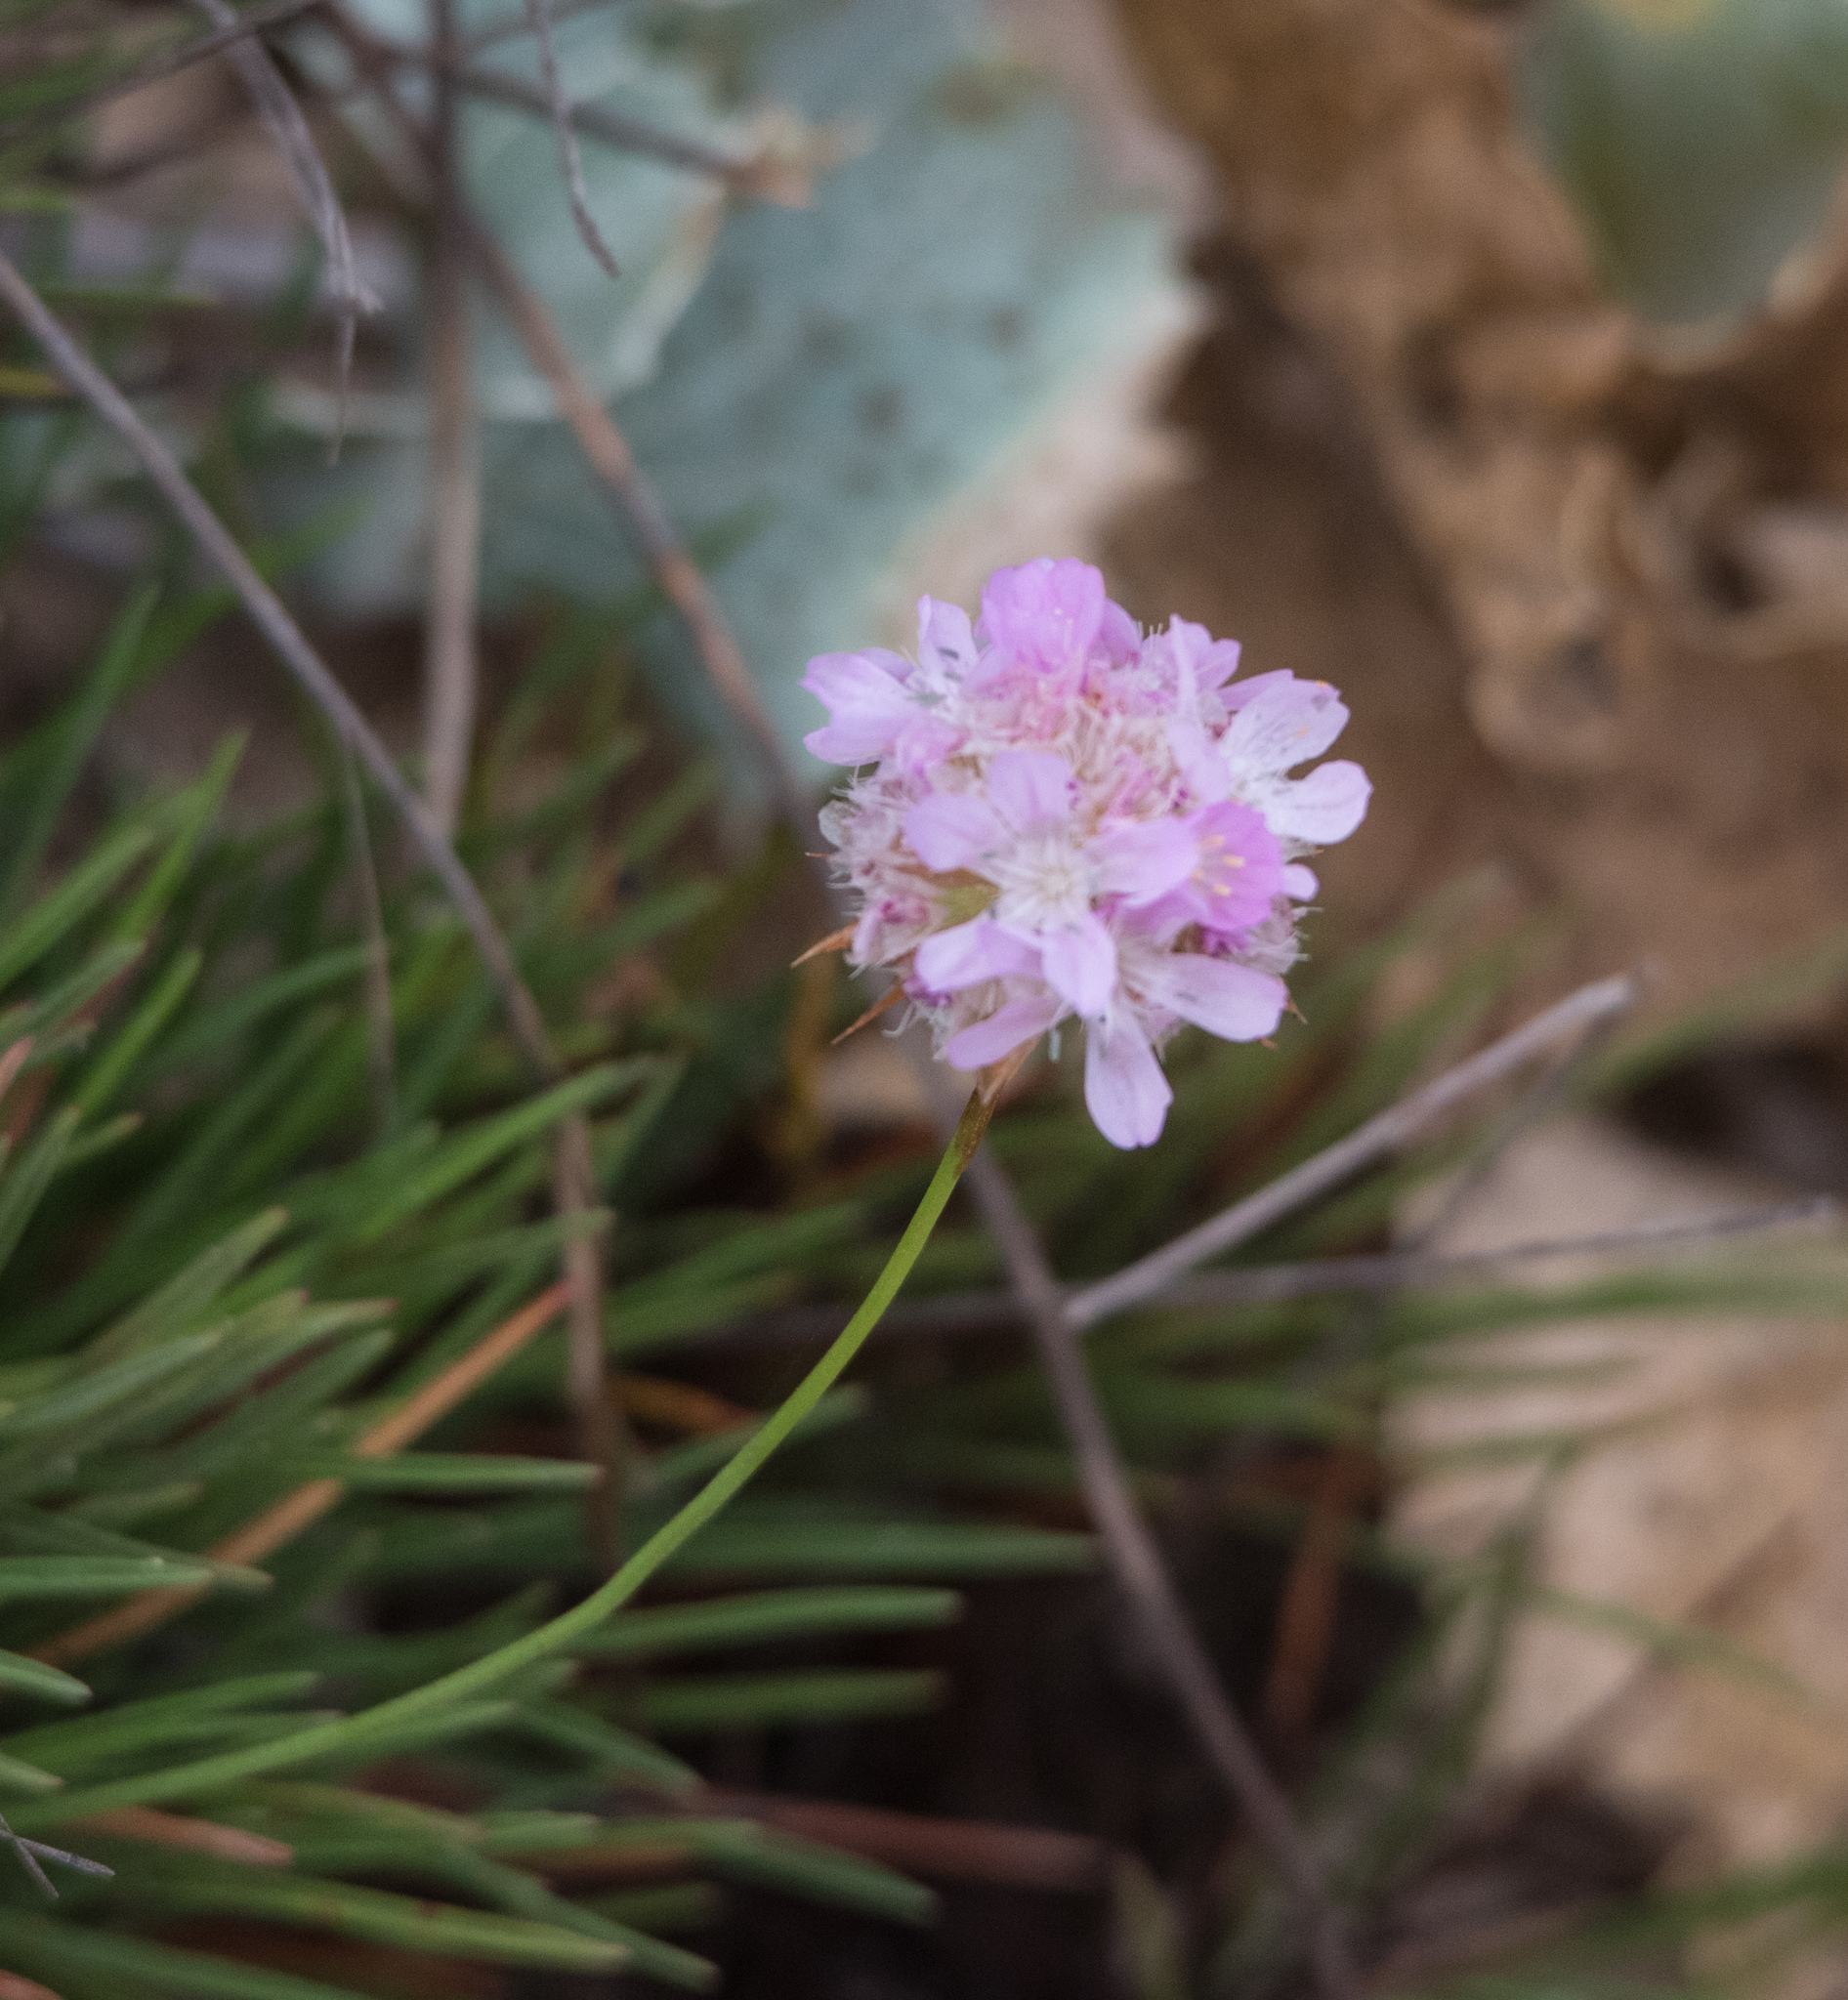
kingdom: Plantae
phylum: Tracheophyta
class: Magnoliopsida
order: Caryophyllales
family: Plumbaginaceae
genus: Armeria
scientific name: Armeria welwitschii
